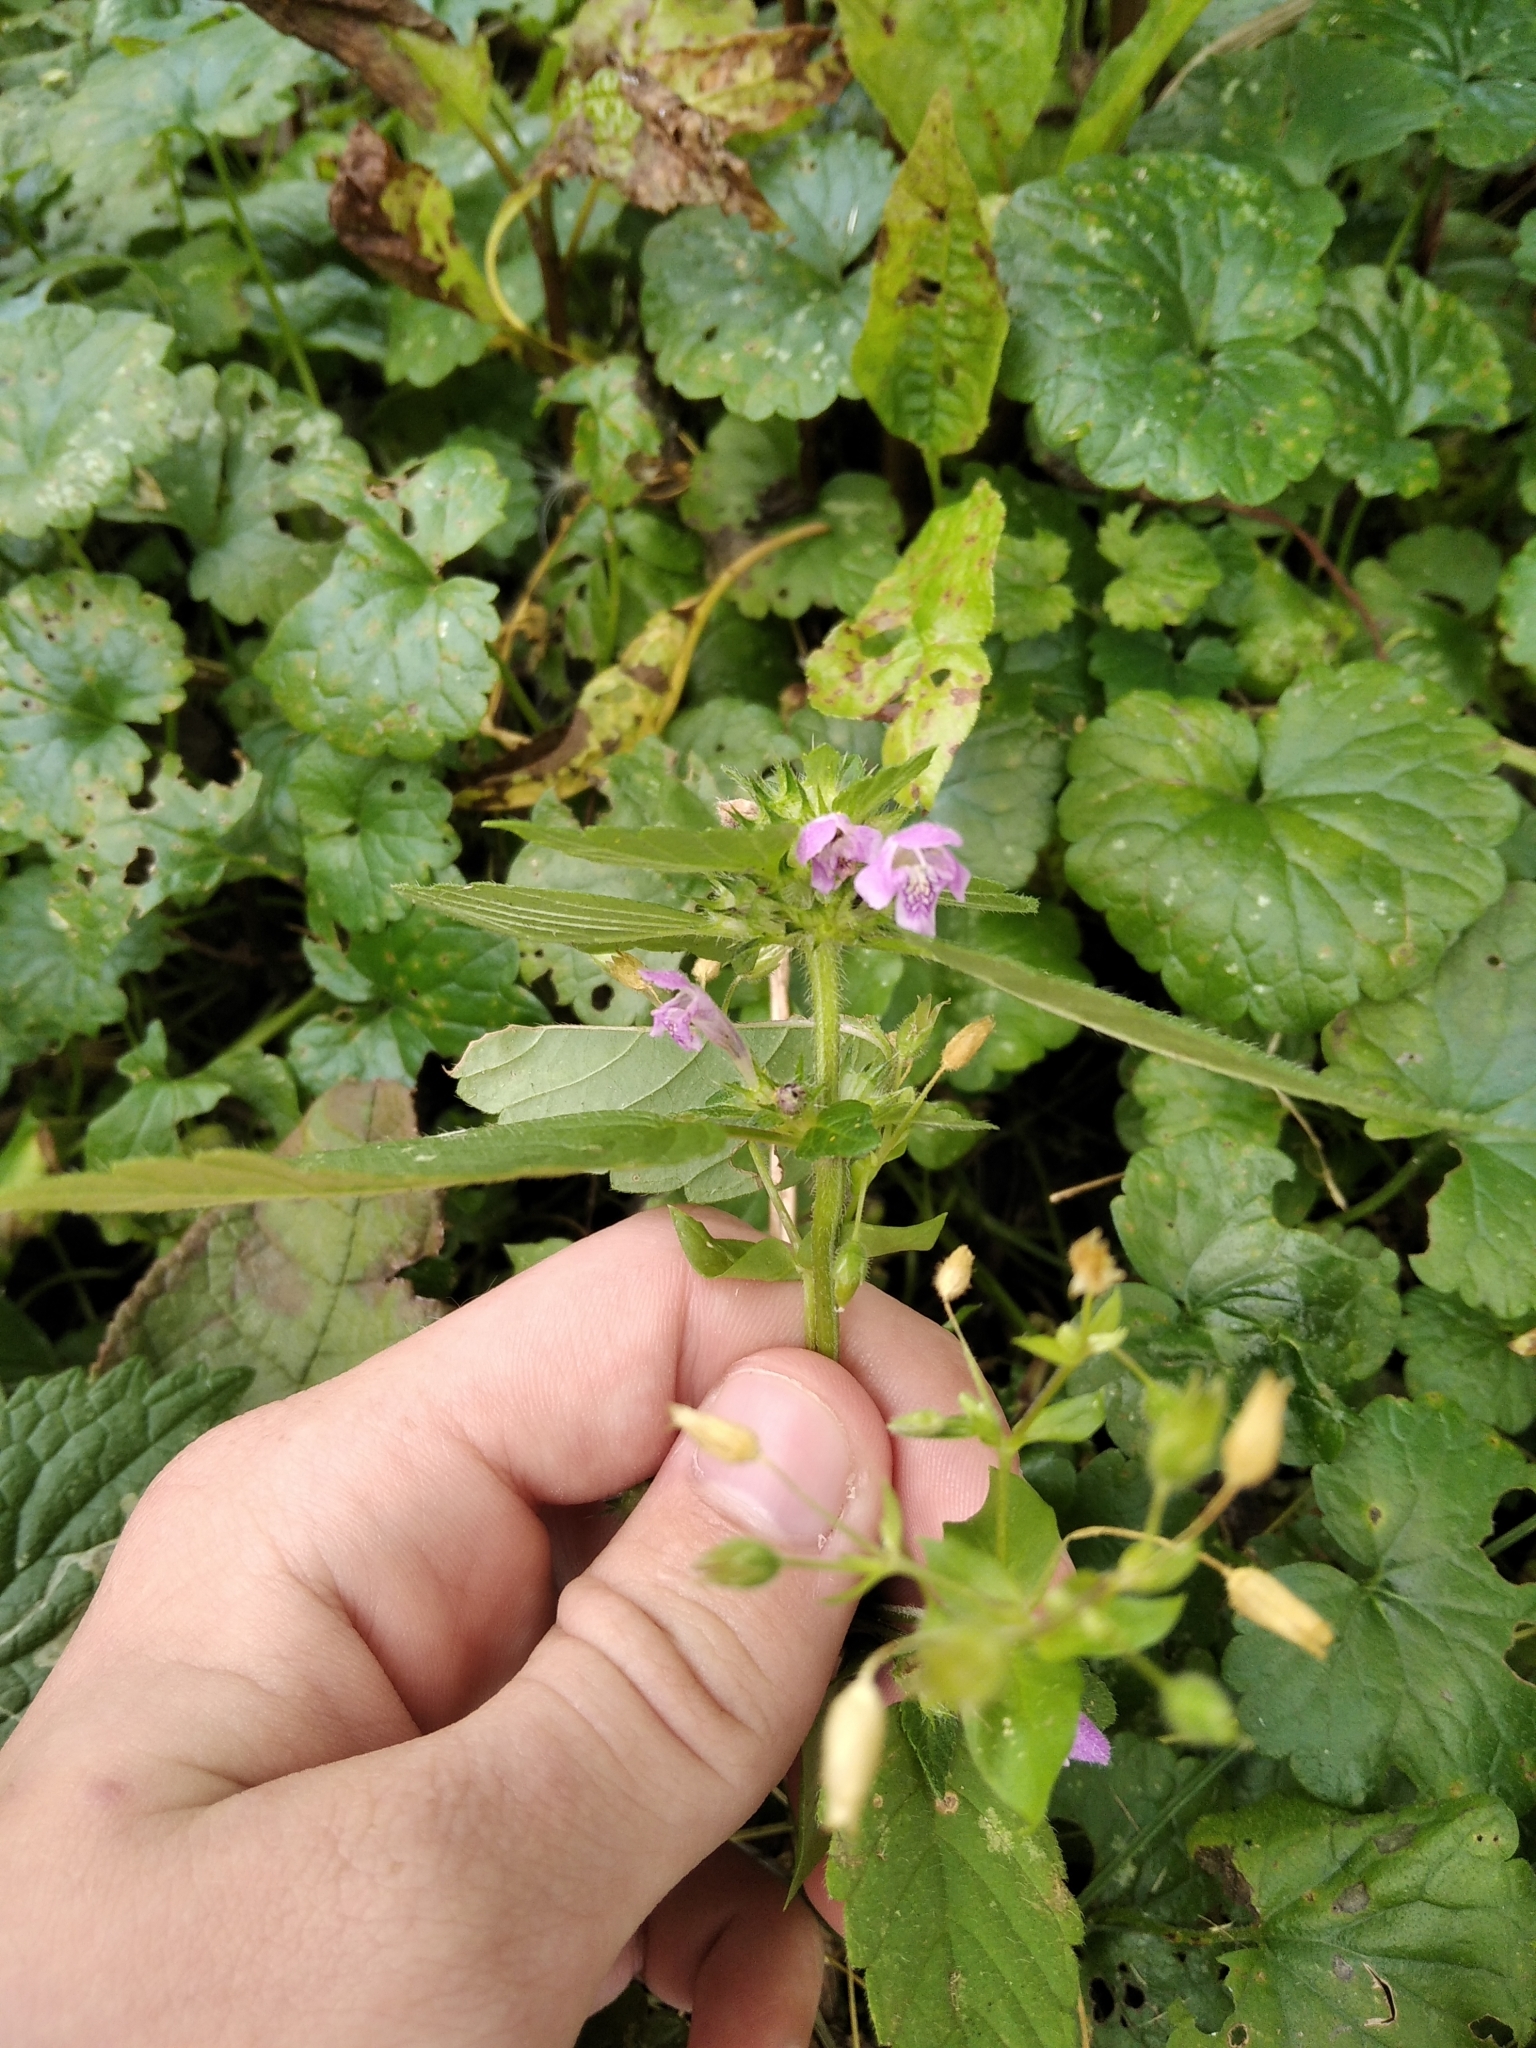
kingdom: Plantae
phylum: Tracheophyta
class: Magnoliopsida
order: Lamiales
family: Lamiaceae
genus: Galeopsis
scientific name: Galeopsis tetrahit
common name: Common hemp-nettle
